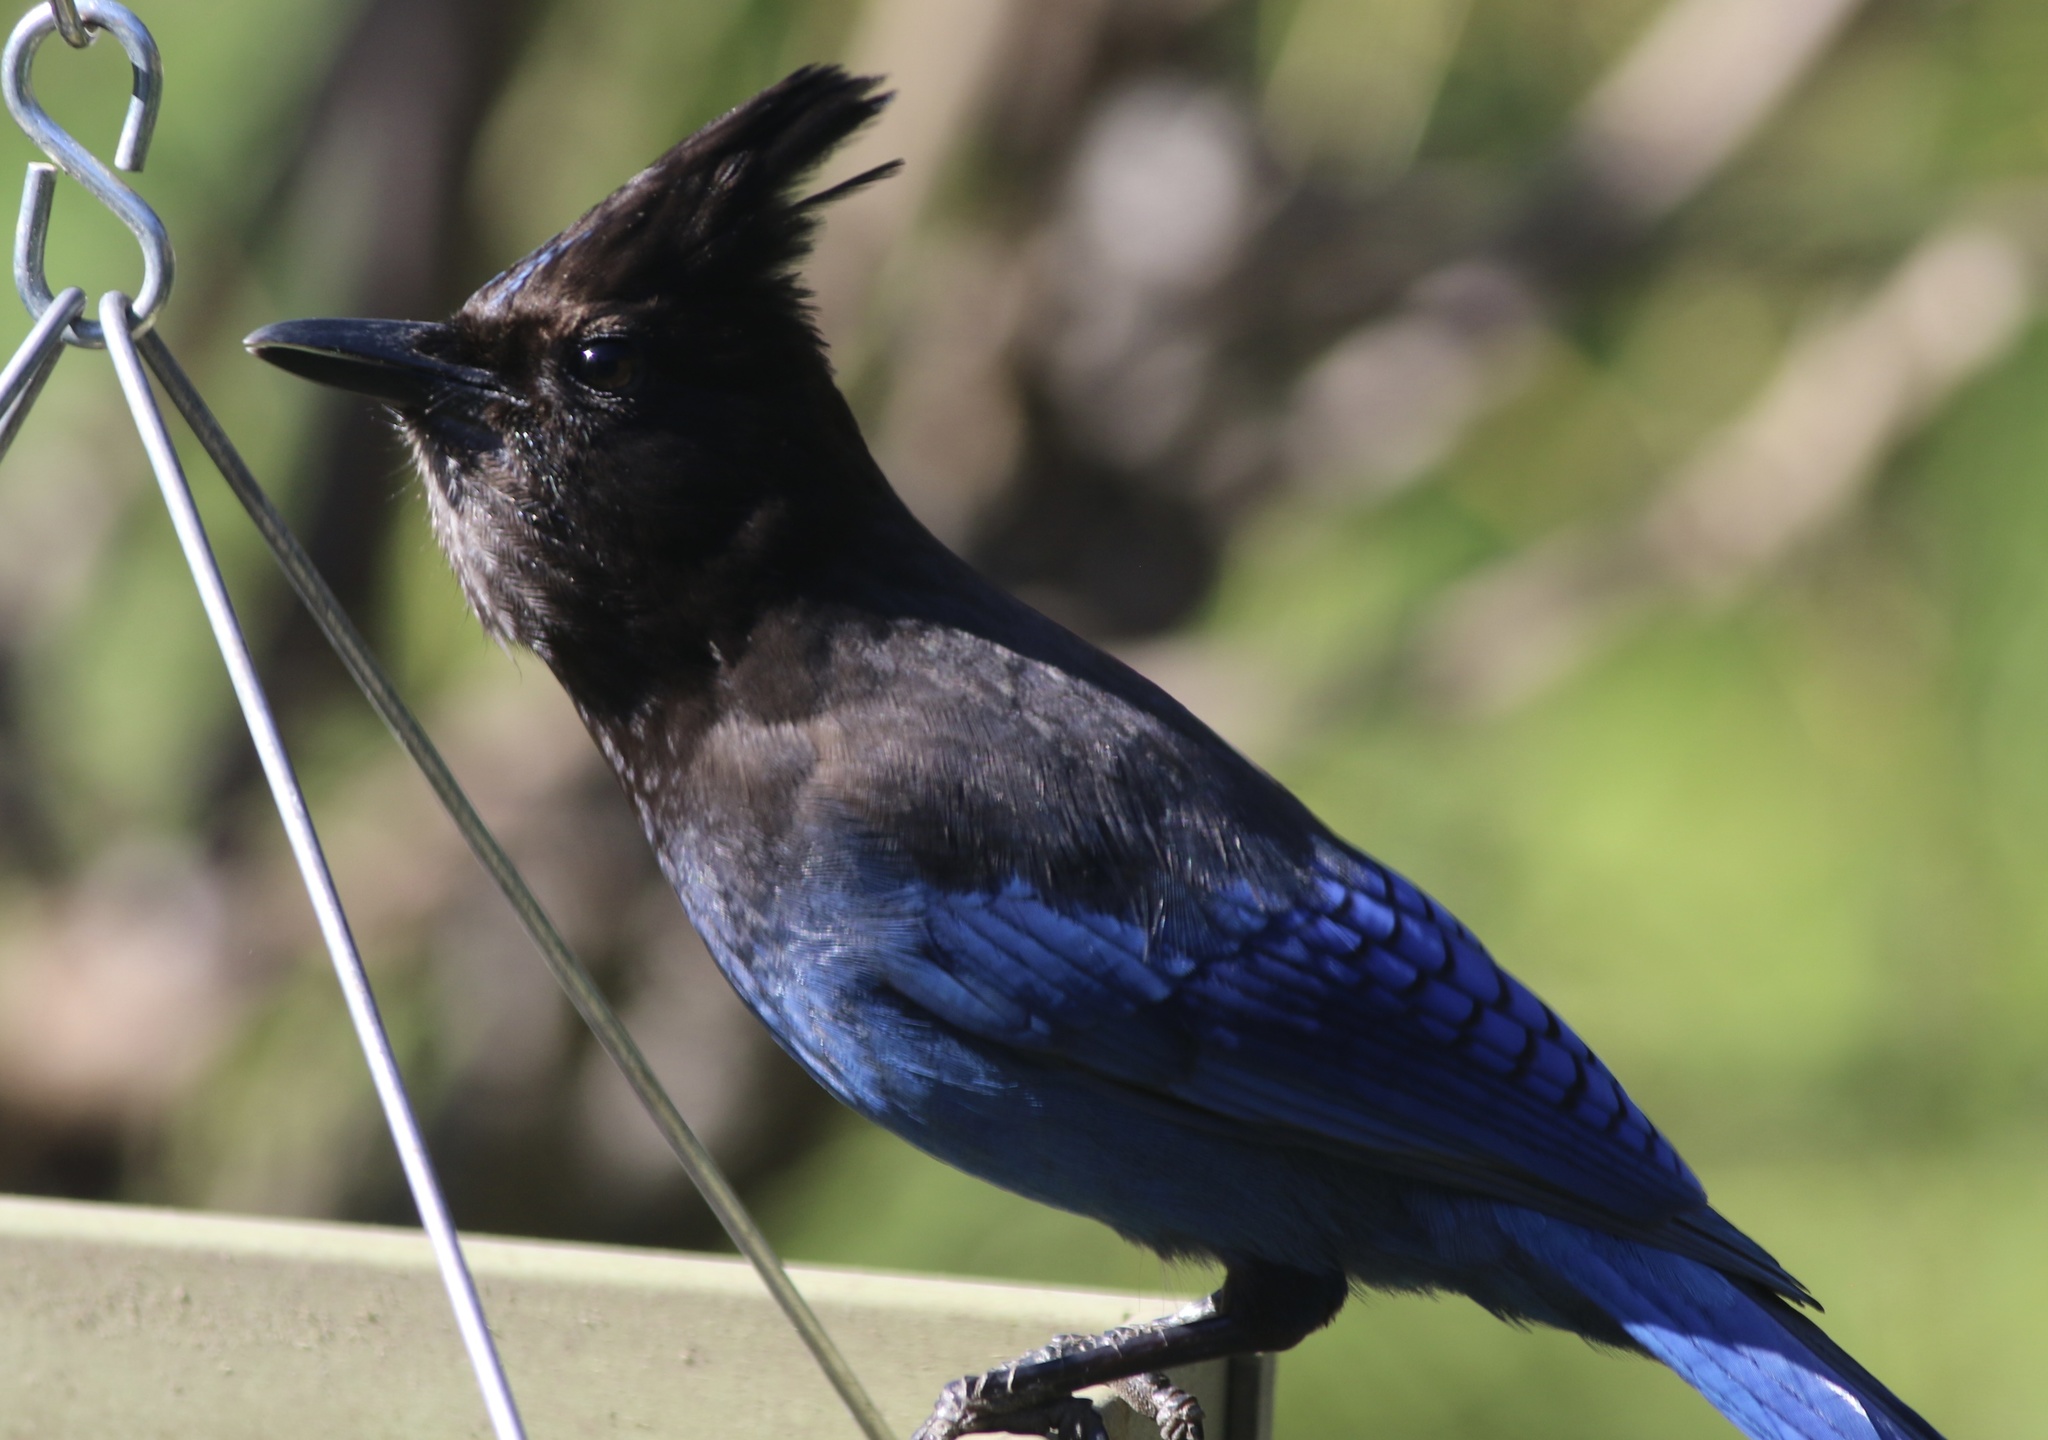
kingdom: Animalia
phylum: Chordata
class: Aves
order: Passeriformes
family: Corvidae
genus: Cyanocitta
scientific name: Cyanocitta stelleri
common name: Steller's jay
